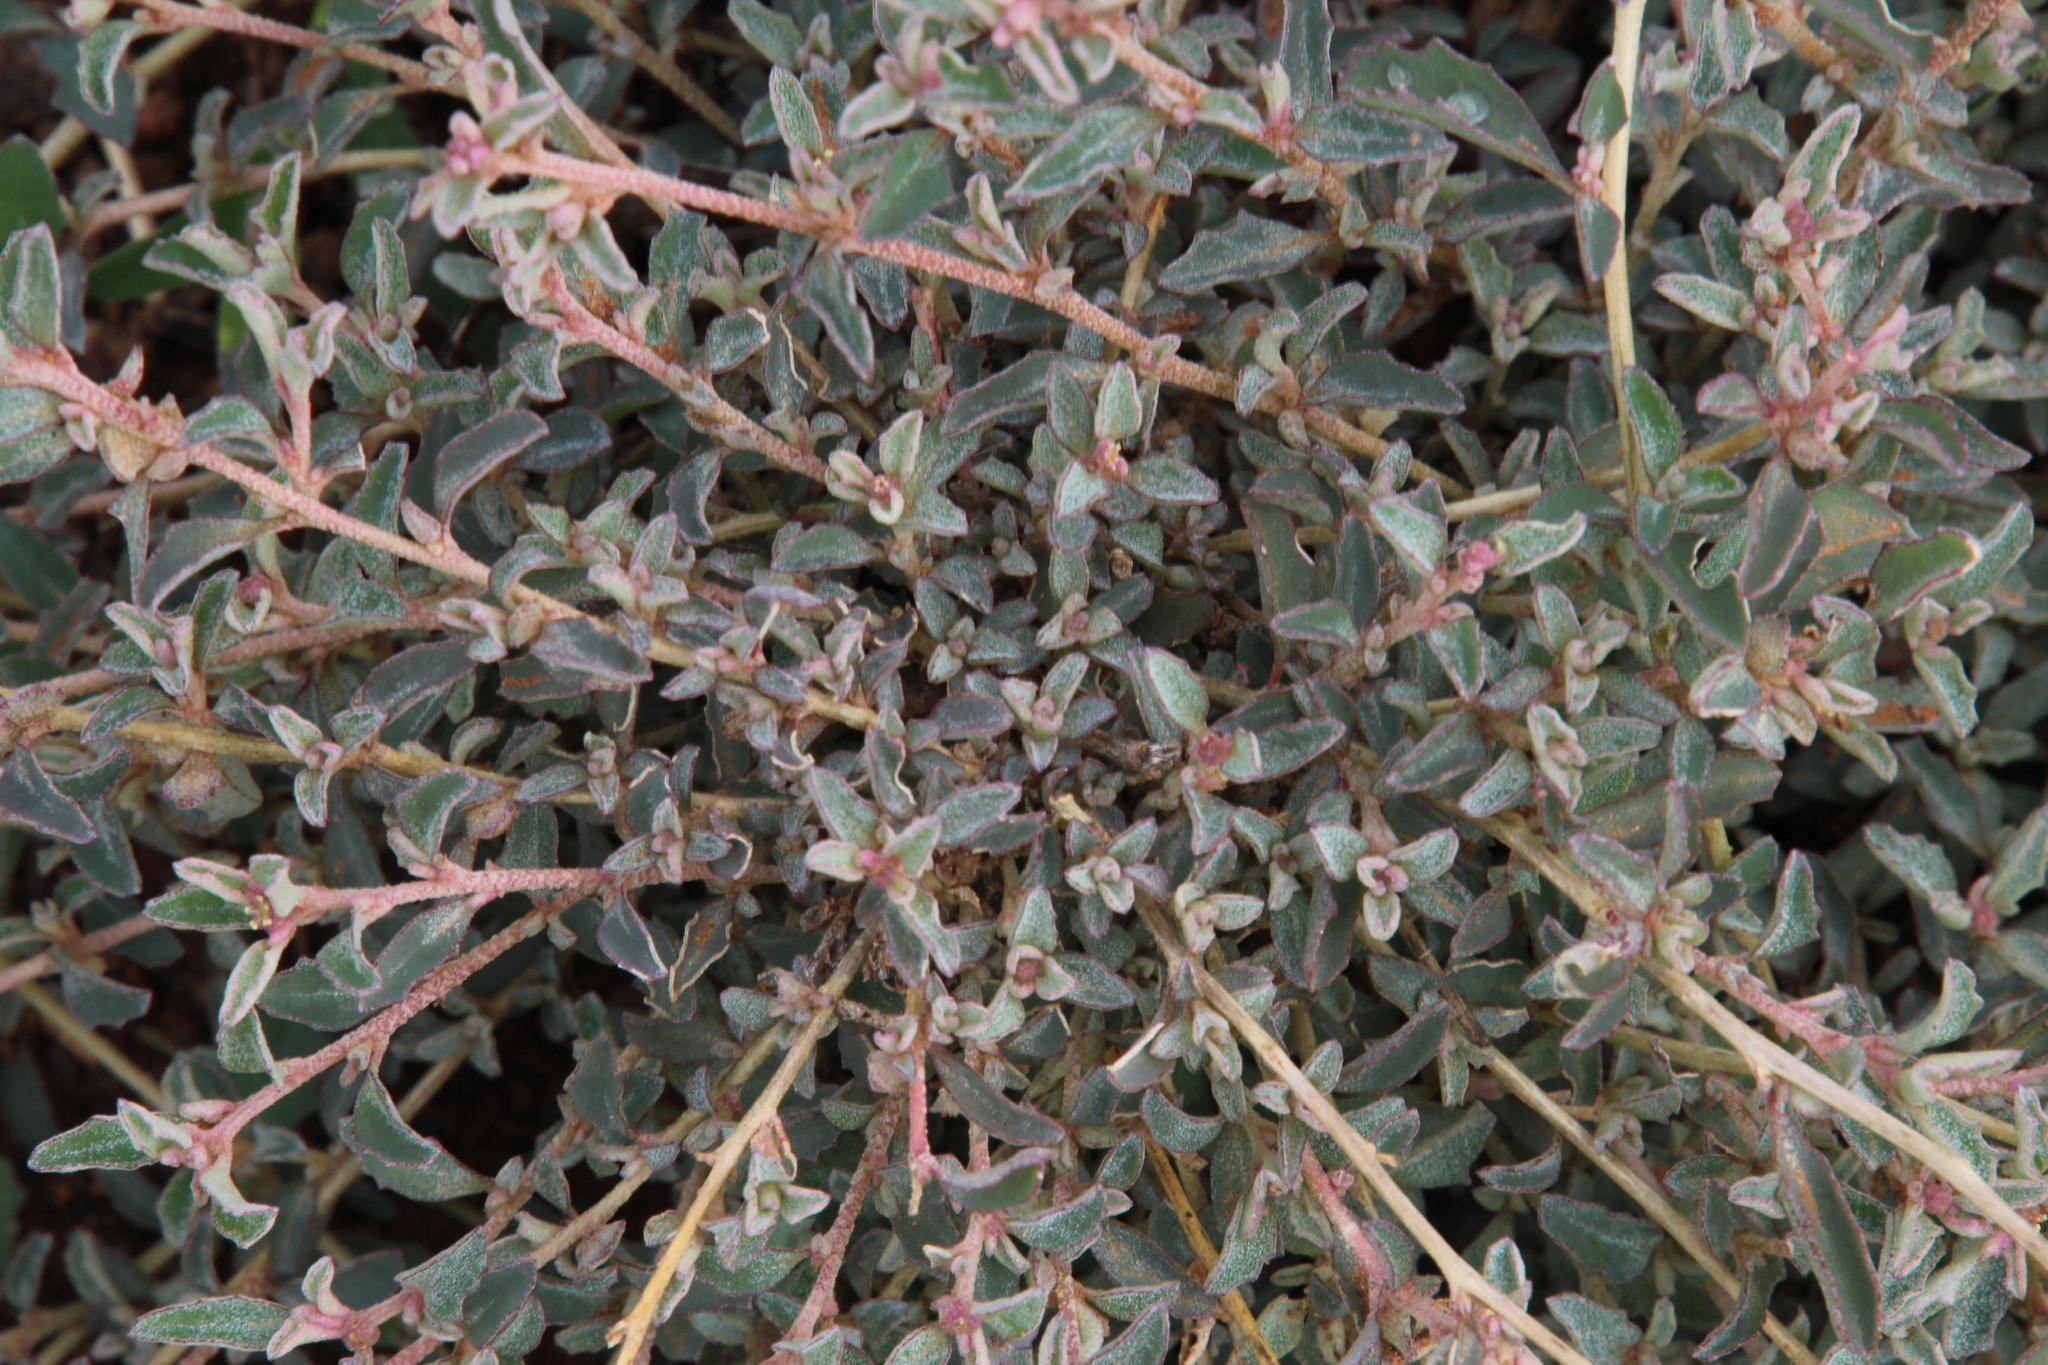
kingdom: Plantae
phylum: Tracheophyta
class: Magnoliopsida
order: Caryophyllales
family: Amaranthaceae
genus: Atriplex
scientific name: Atriplex semibaccata
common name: Australian saltbush
